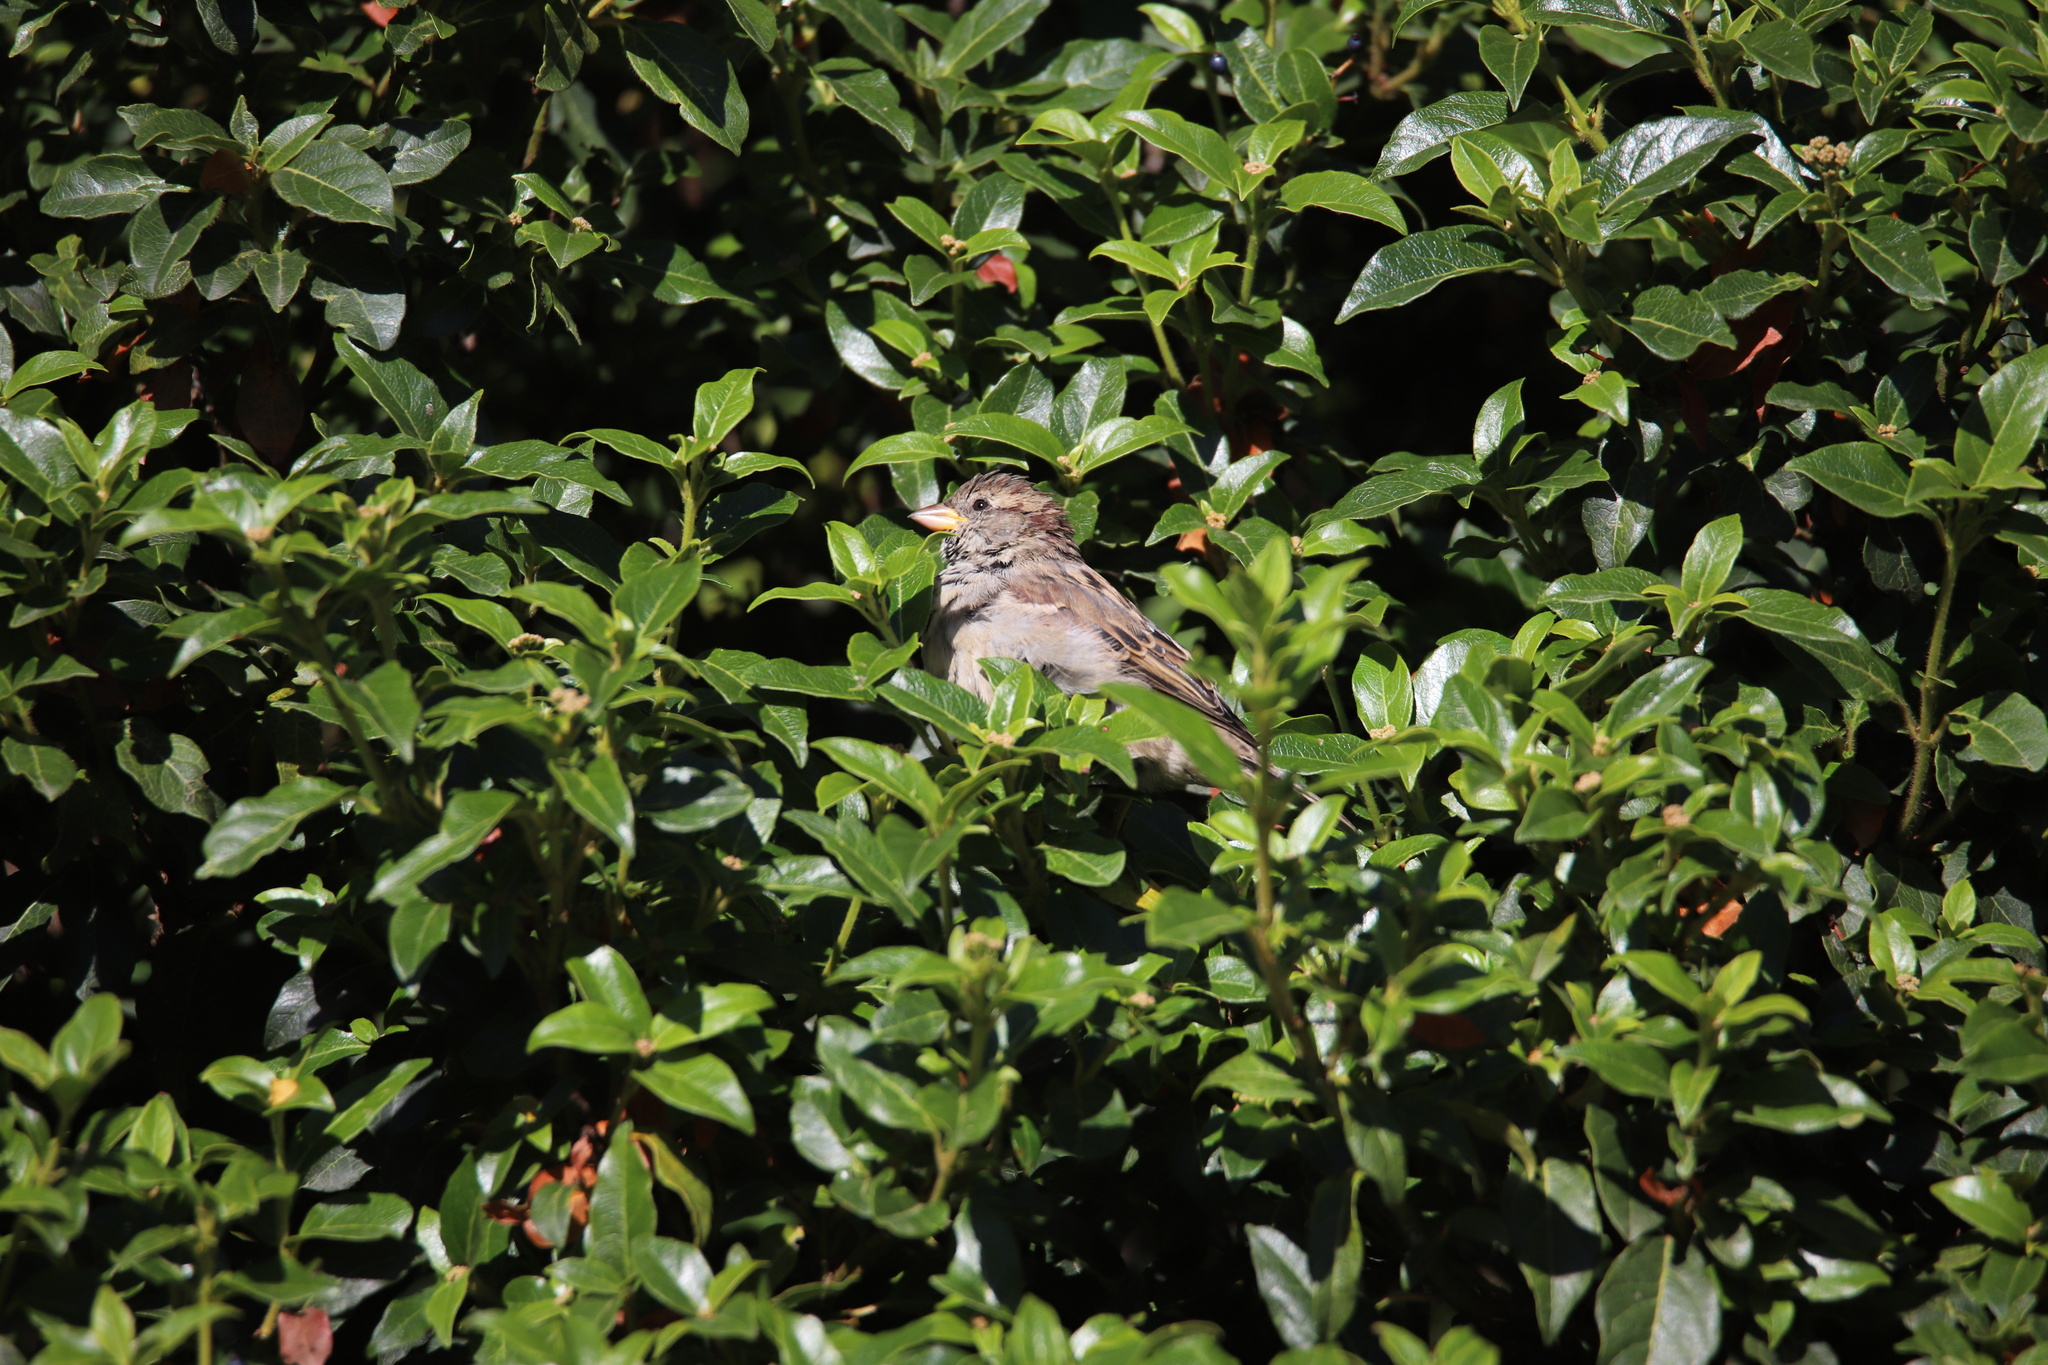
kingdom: Animalia
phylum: Chordata
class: Aves
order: Passeriformes
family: Passeridae
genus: Passer
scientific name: Passer domesticus
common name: House sparrow
